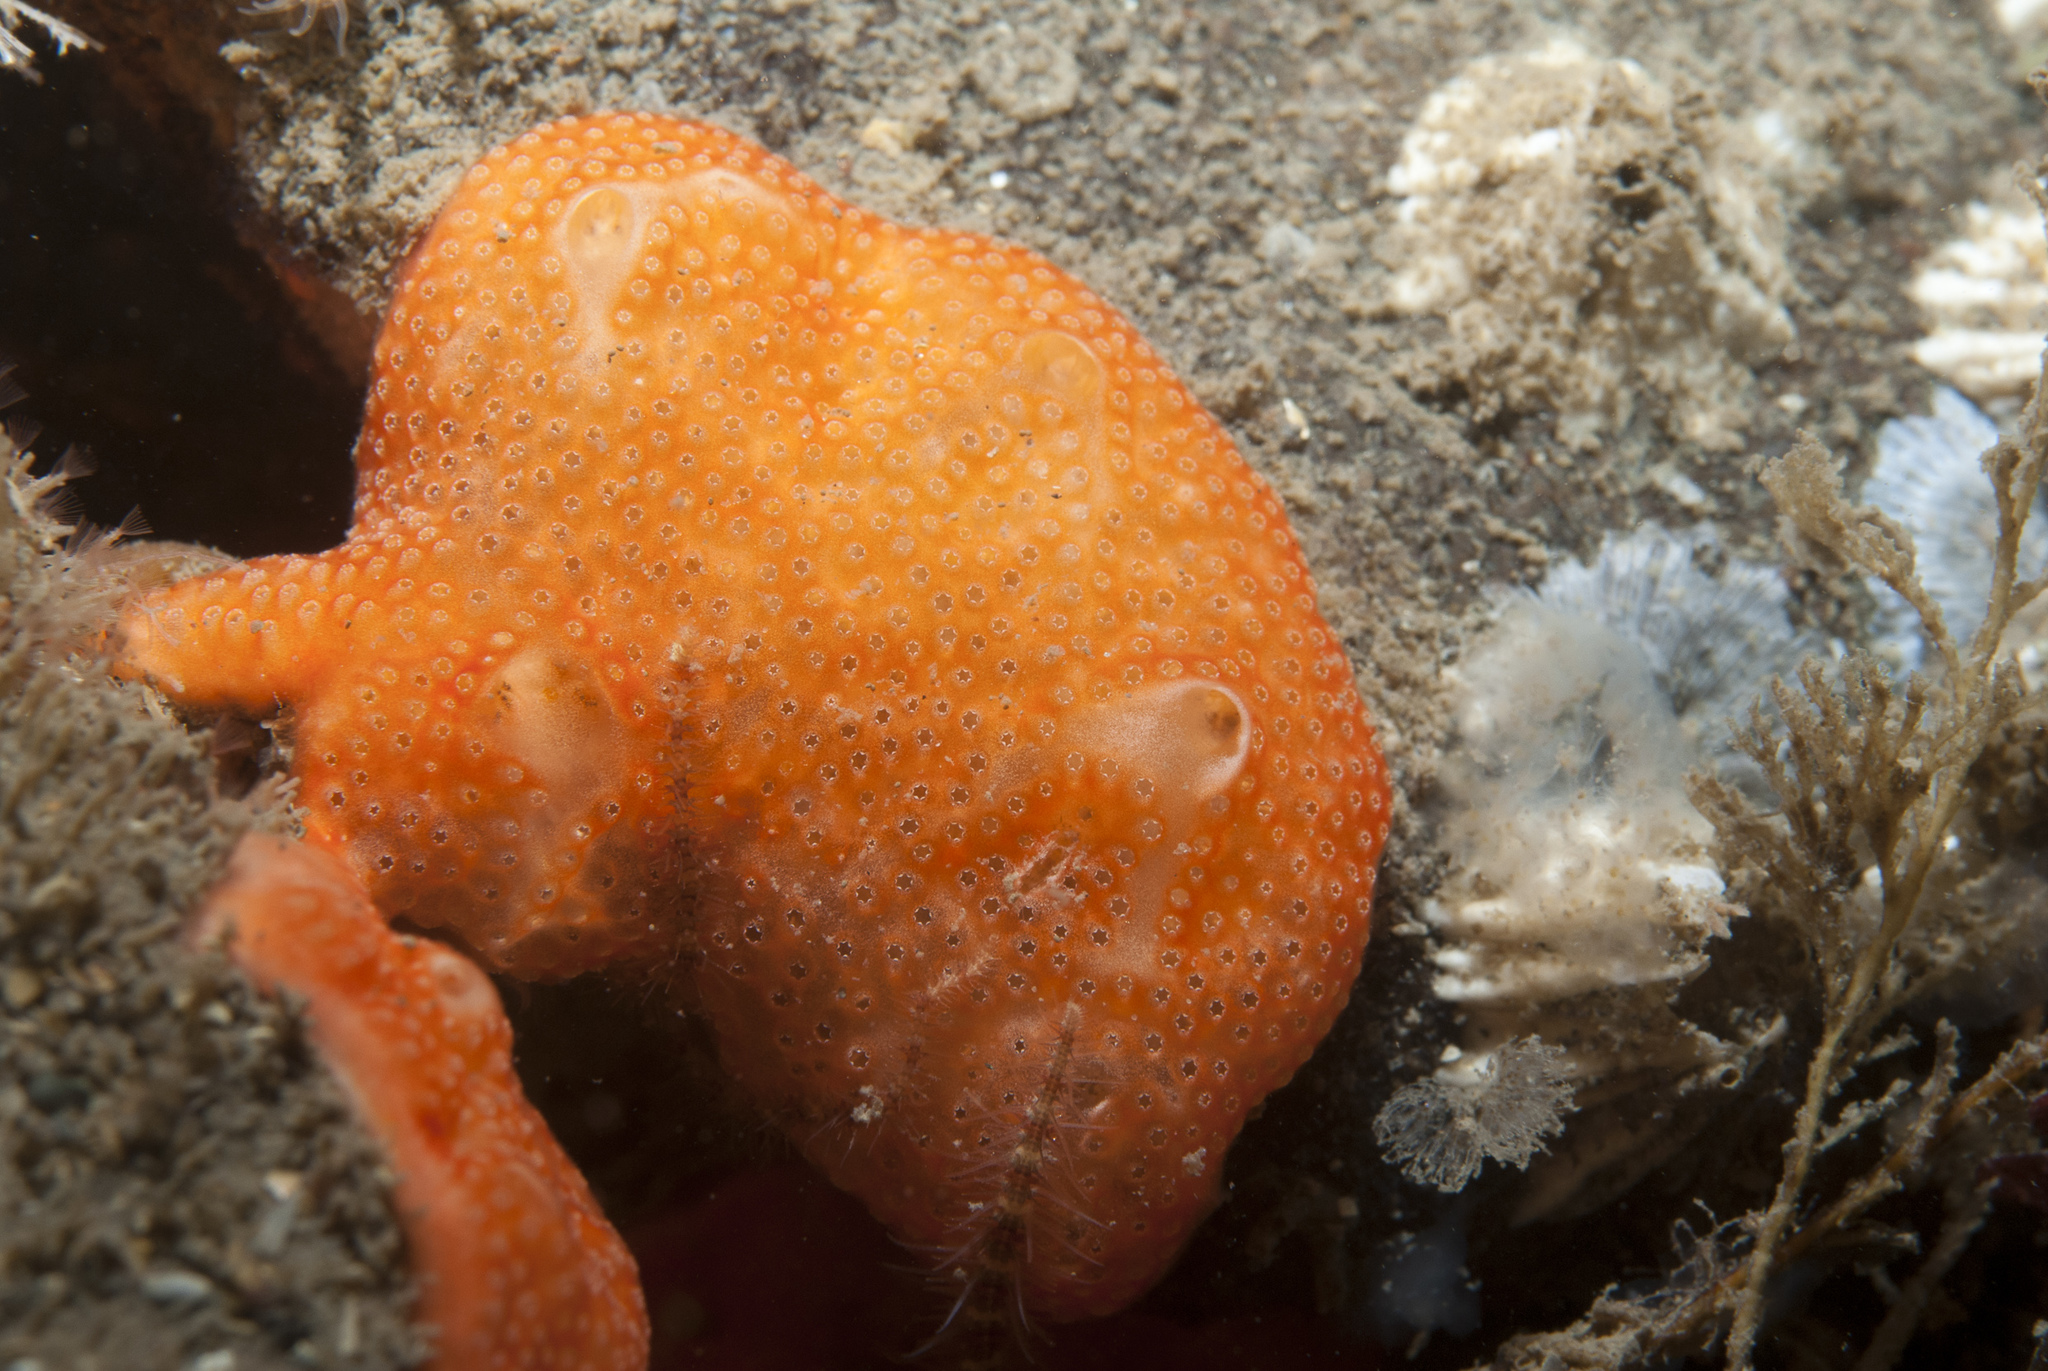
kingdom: Animalia
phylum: Chordata
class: Ascidiacea
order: Aplousobranchia
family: Didemnidae
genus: Didemnum
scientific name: Didemnum pseudofulgens
